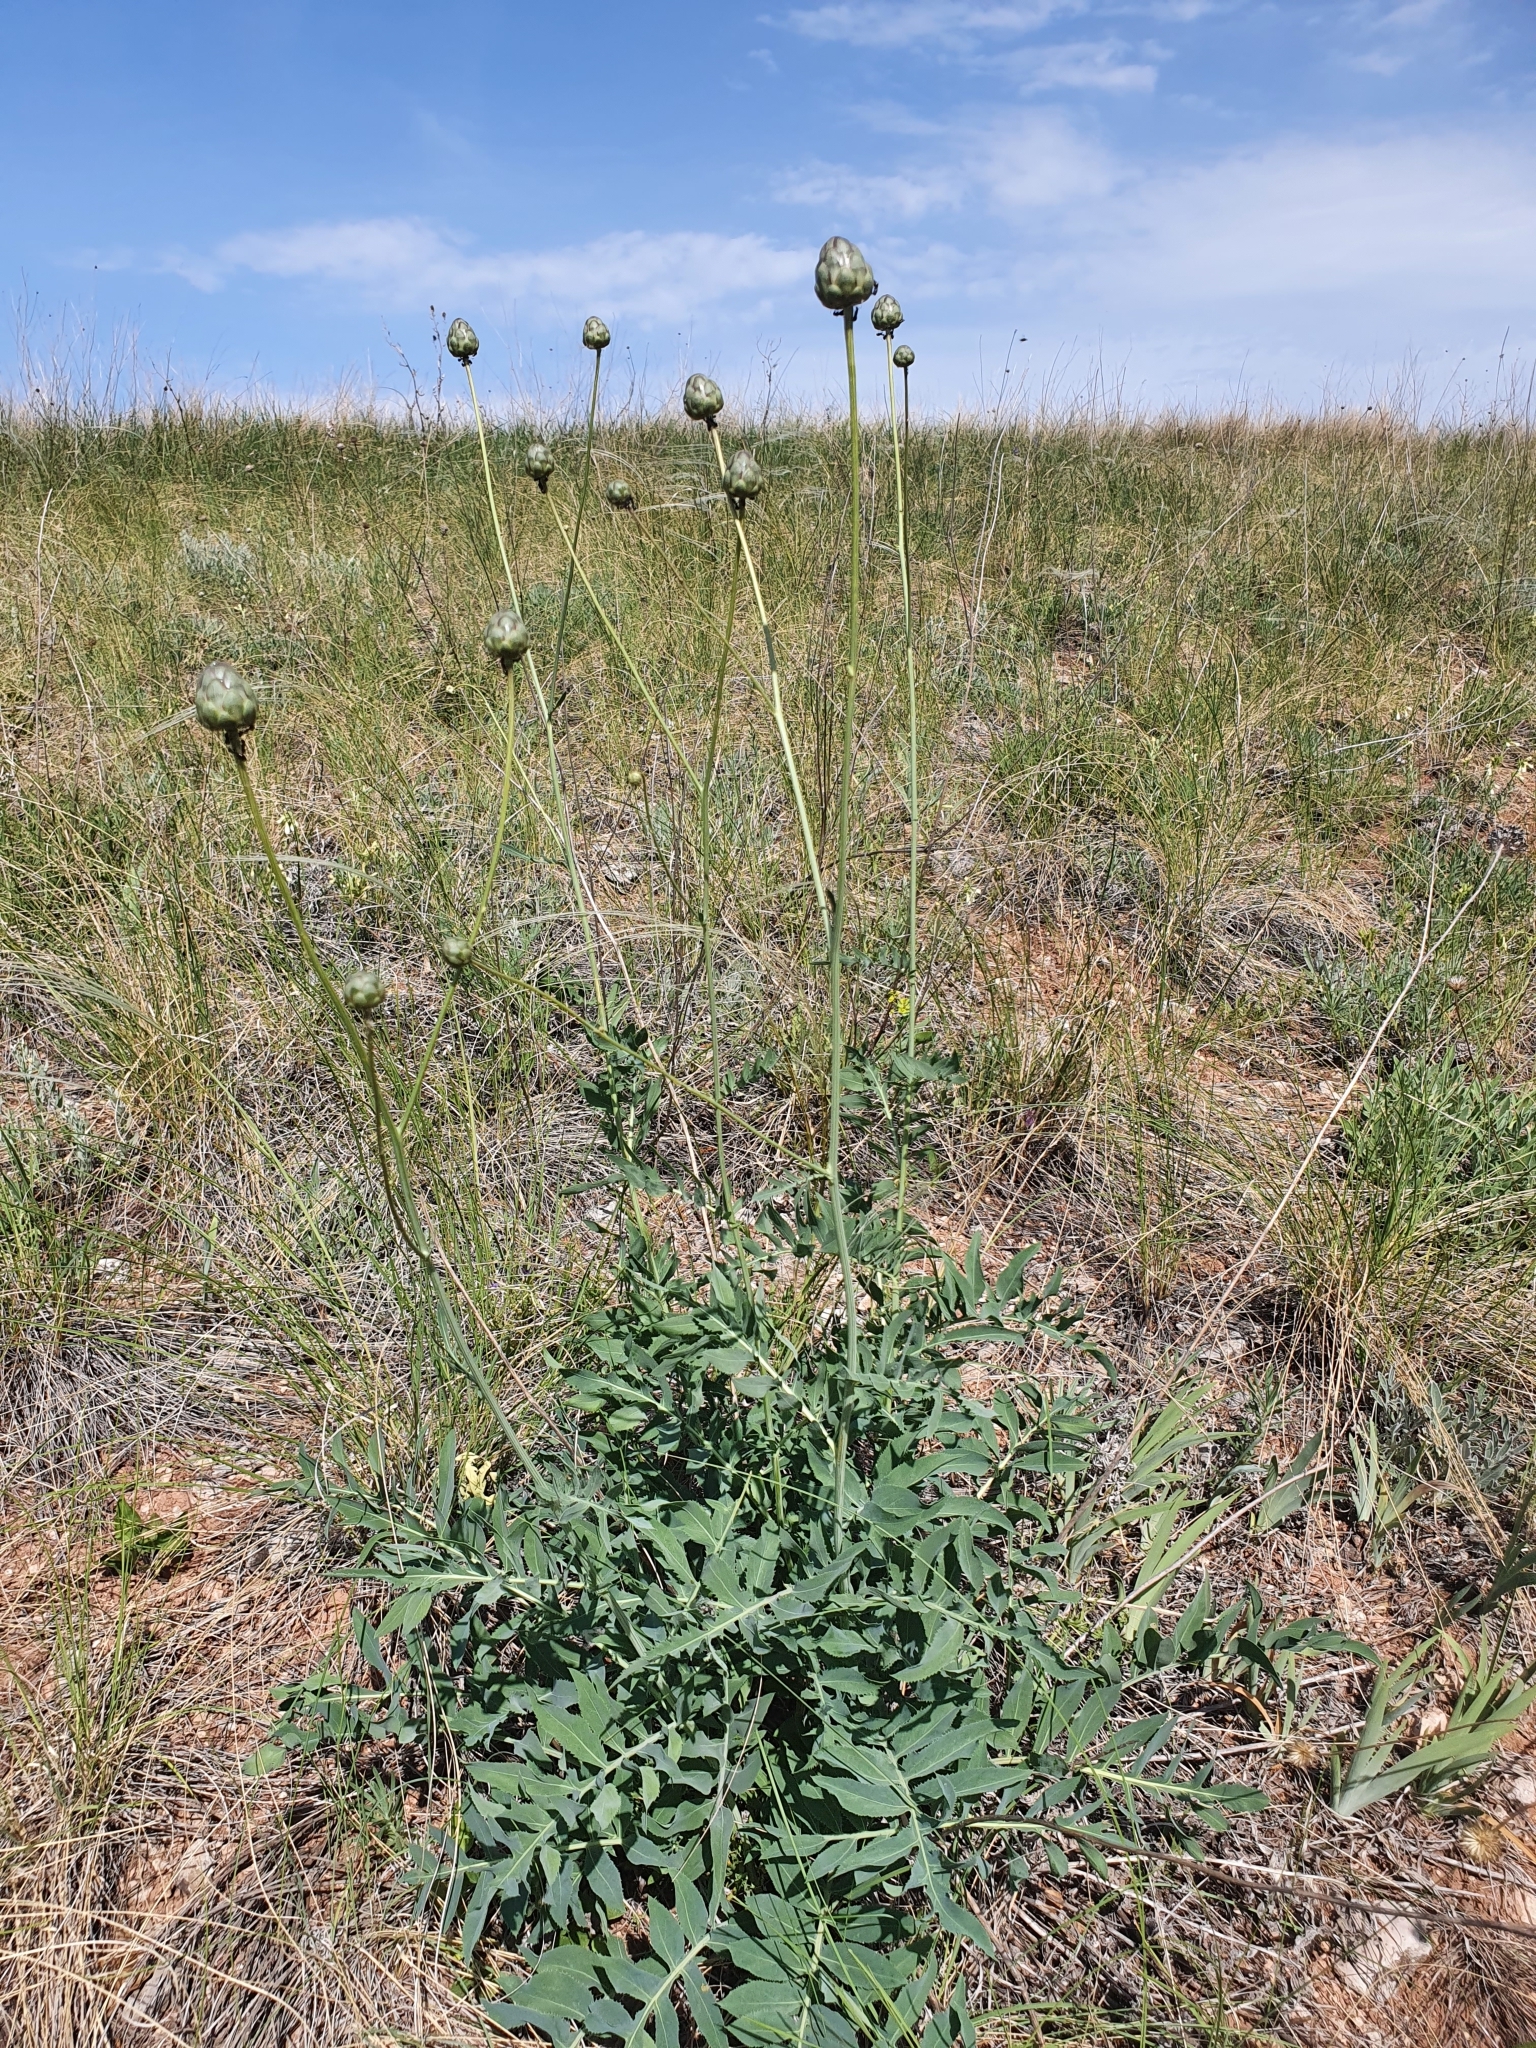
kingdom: Plantae
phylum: Tracheophyta
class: Magnoliopsida
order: Asterales
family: Asteraceae
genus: Rhaponticoides
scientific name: Rhaponticoides ruthenica
